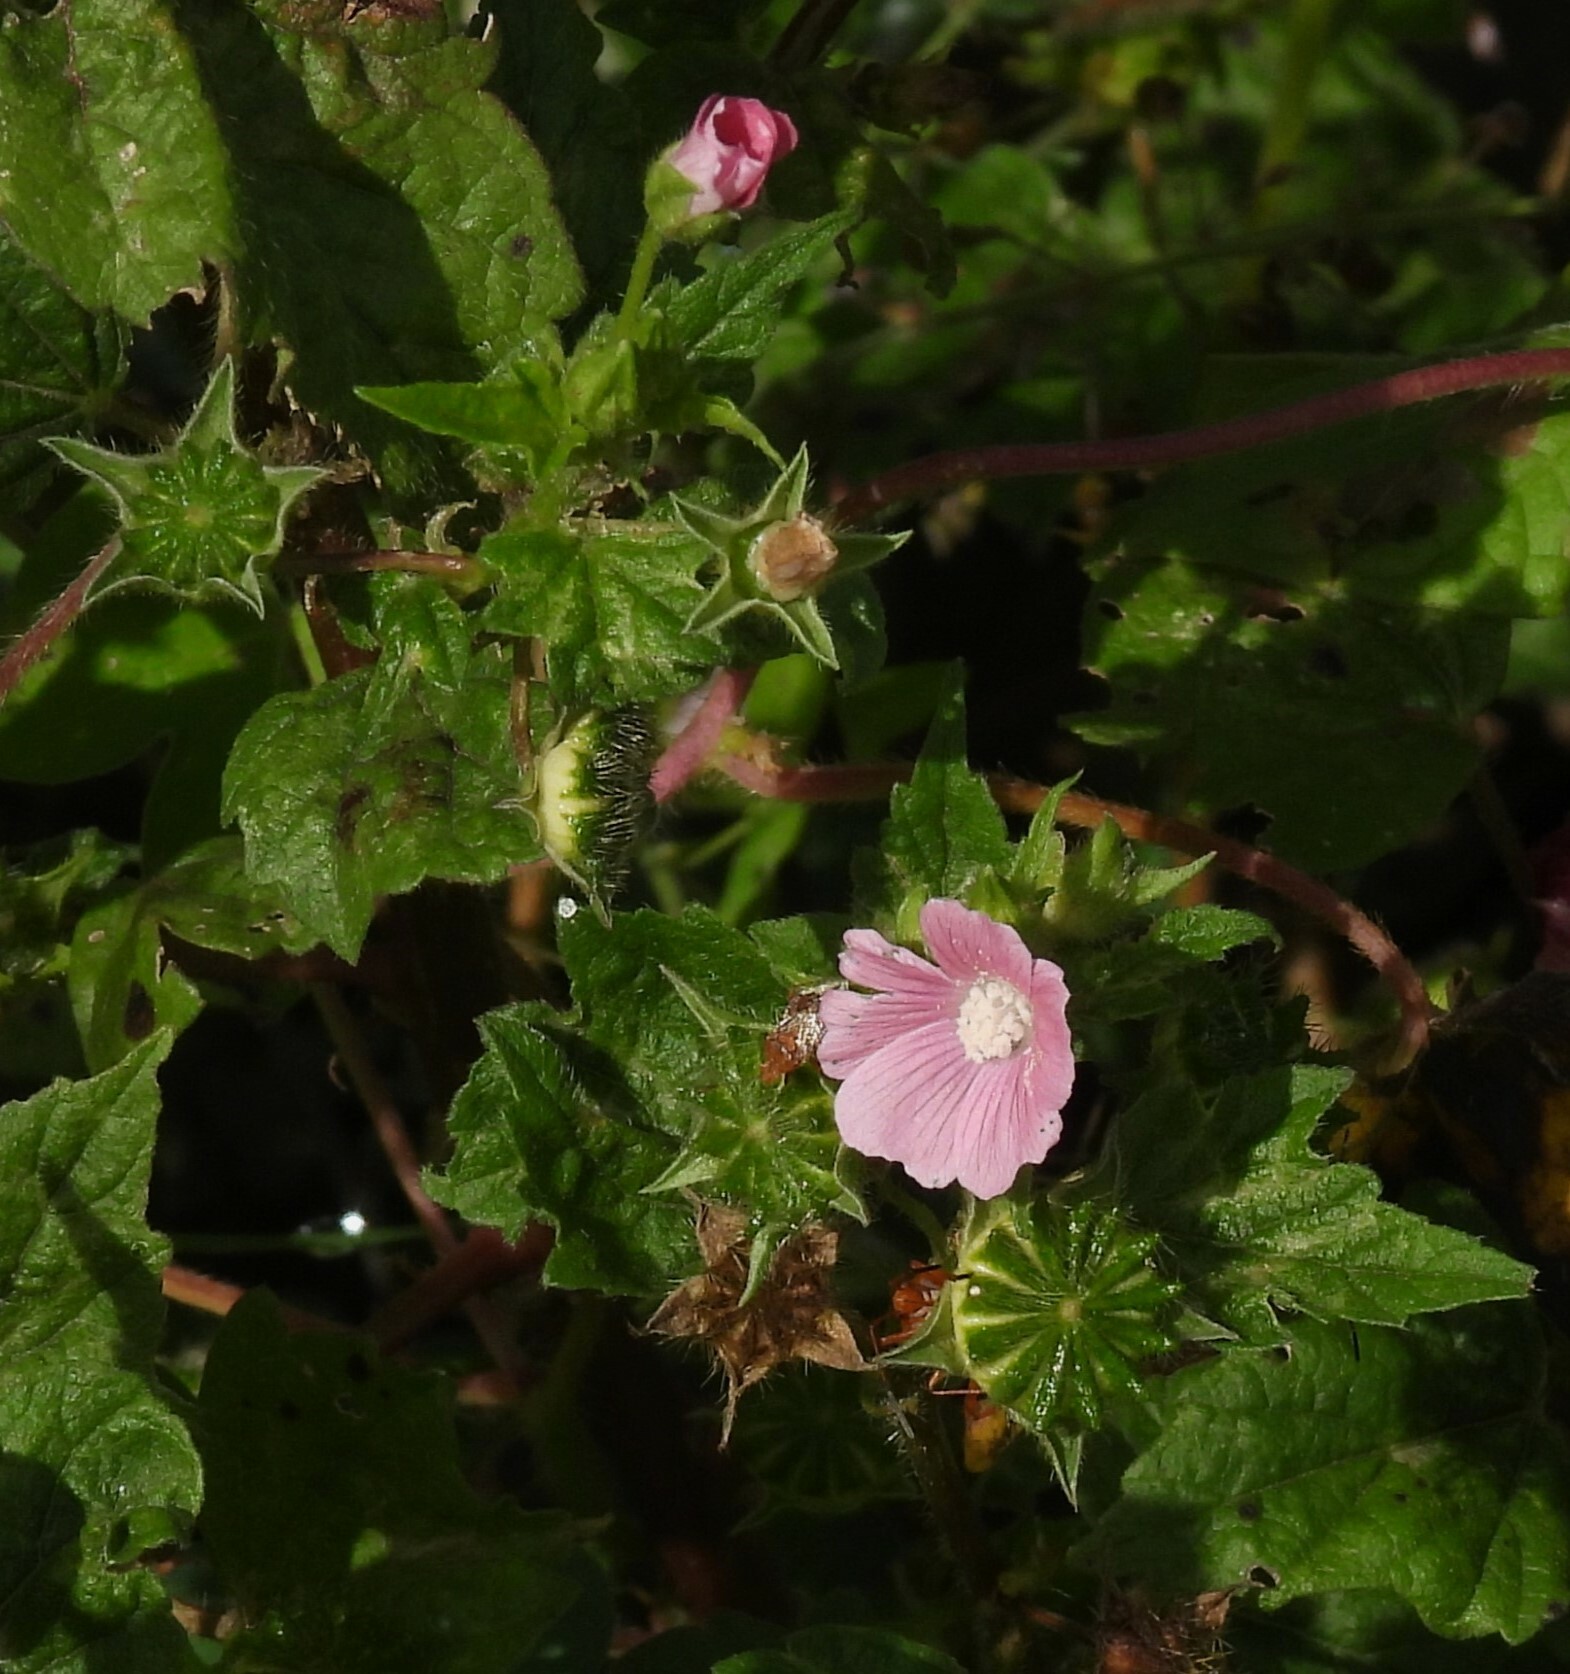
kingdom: Plantae
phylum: Tracheophyta
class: Magnoliopsida
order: Malvales
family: Malvaceae
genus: Anoda
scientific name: Anoda cristata
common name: Spurred anoda
